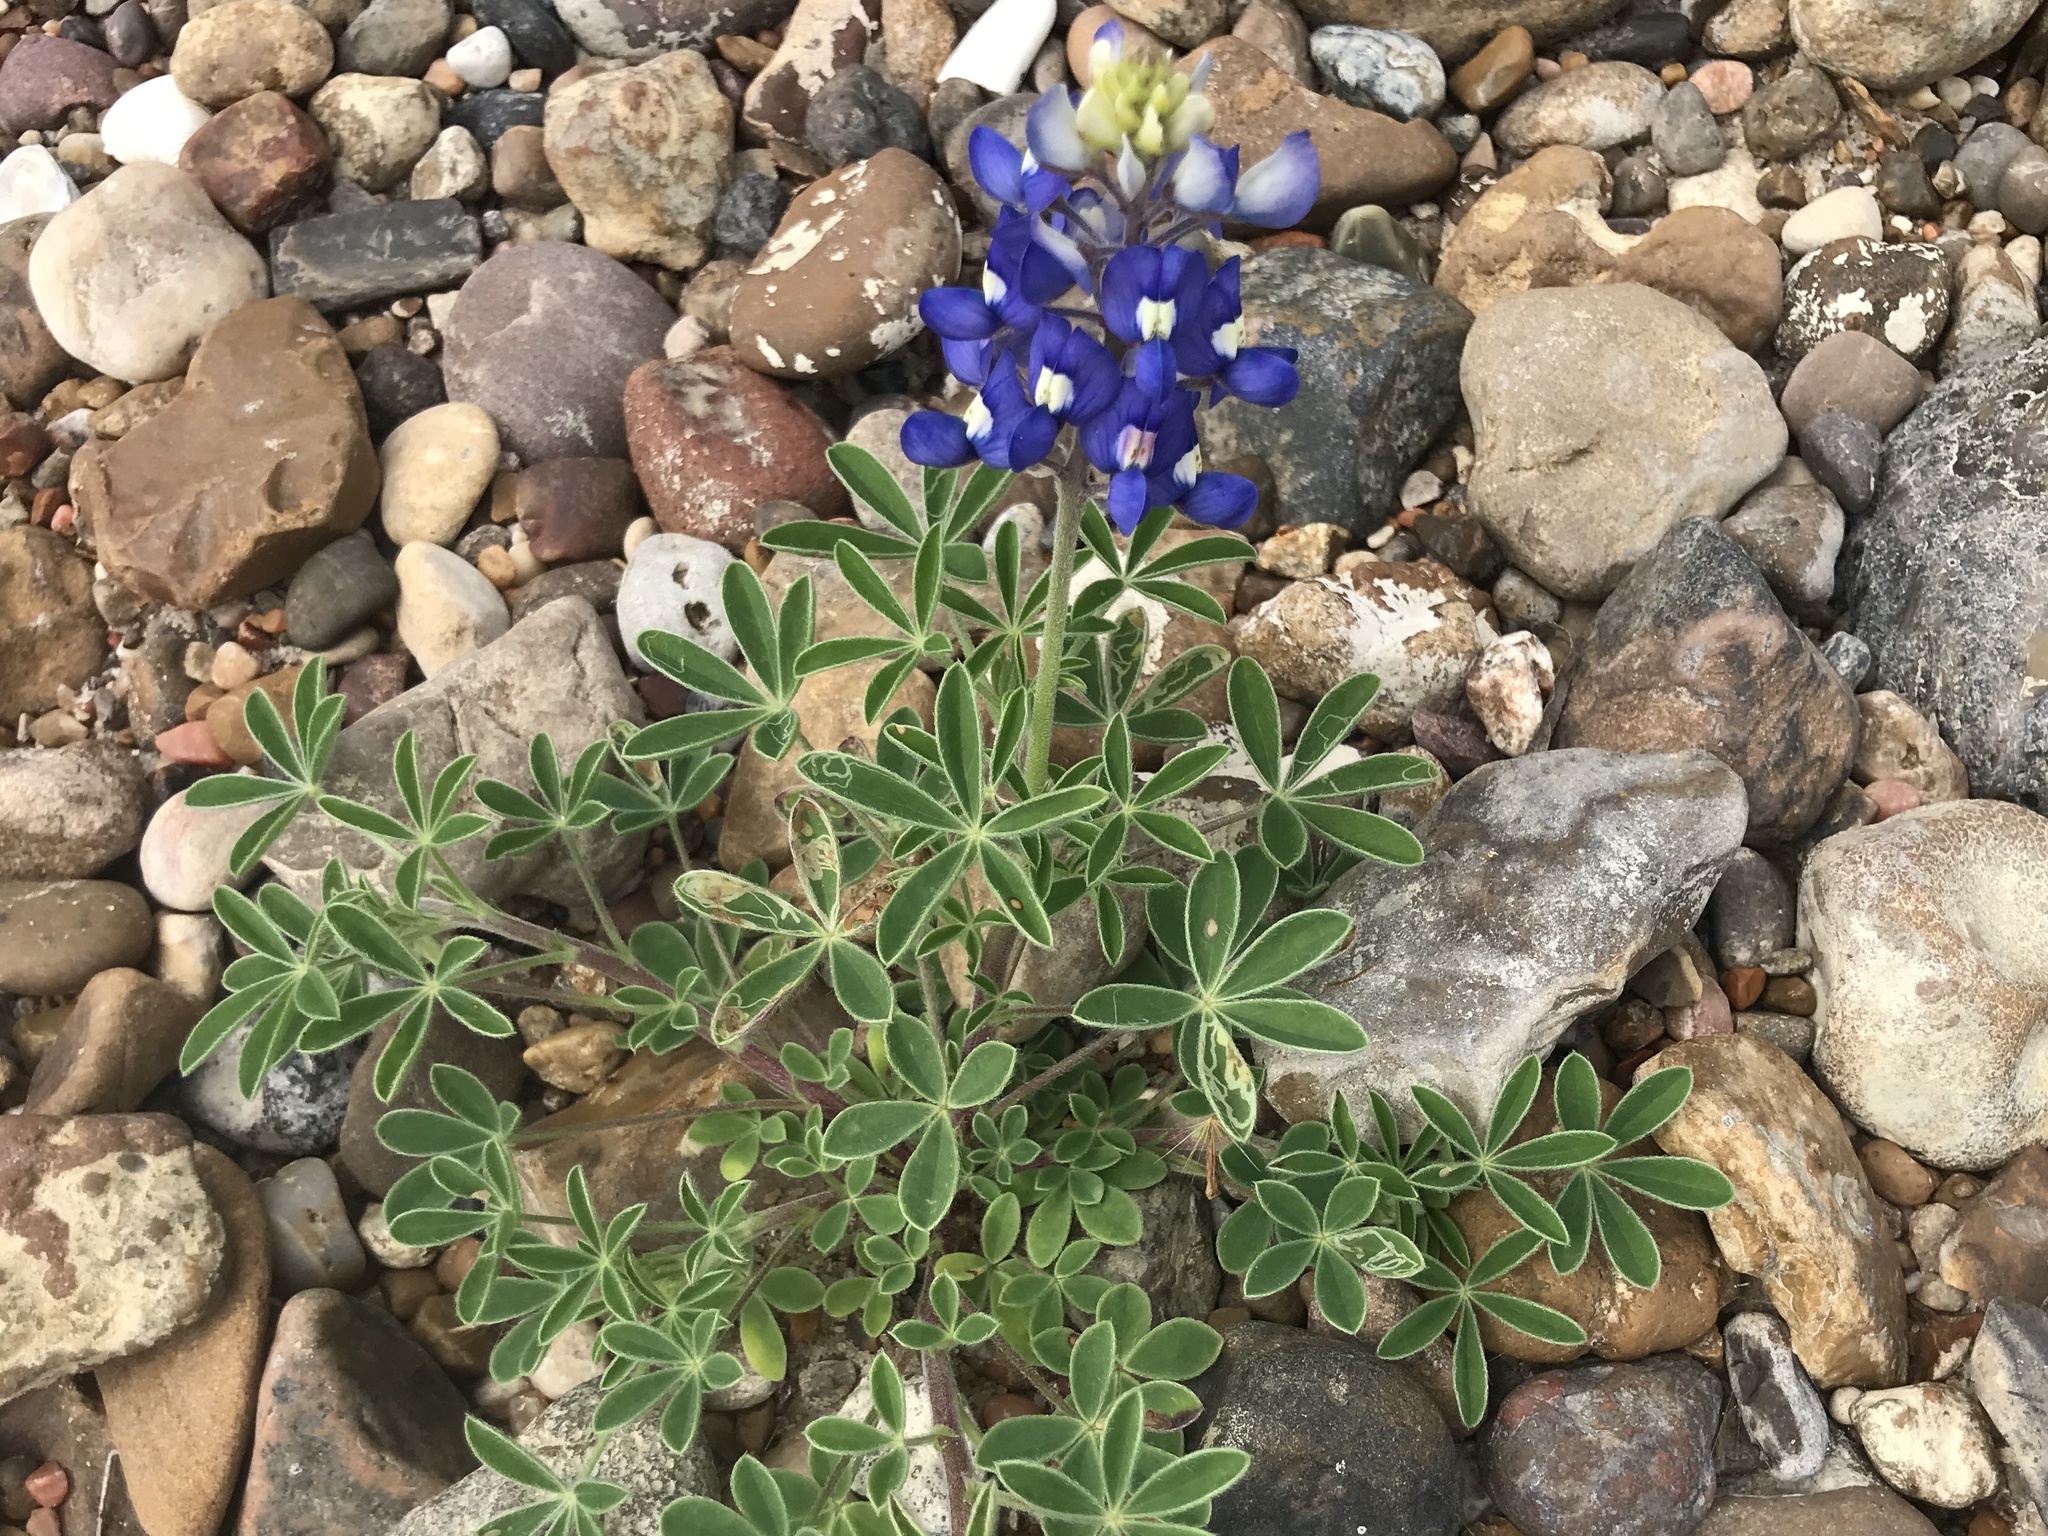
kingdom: Plantae
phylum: Tracheophyta
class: Magnoliopsida
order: Fabales
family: Fabaceae
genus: Lupinus
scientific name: Lupinus texensis
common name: Texas bluebonnet
